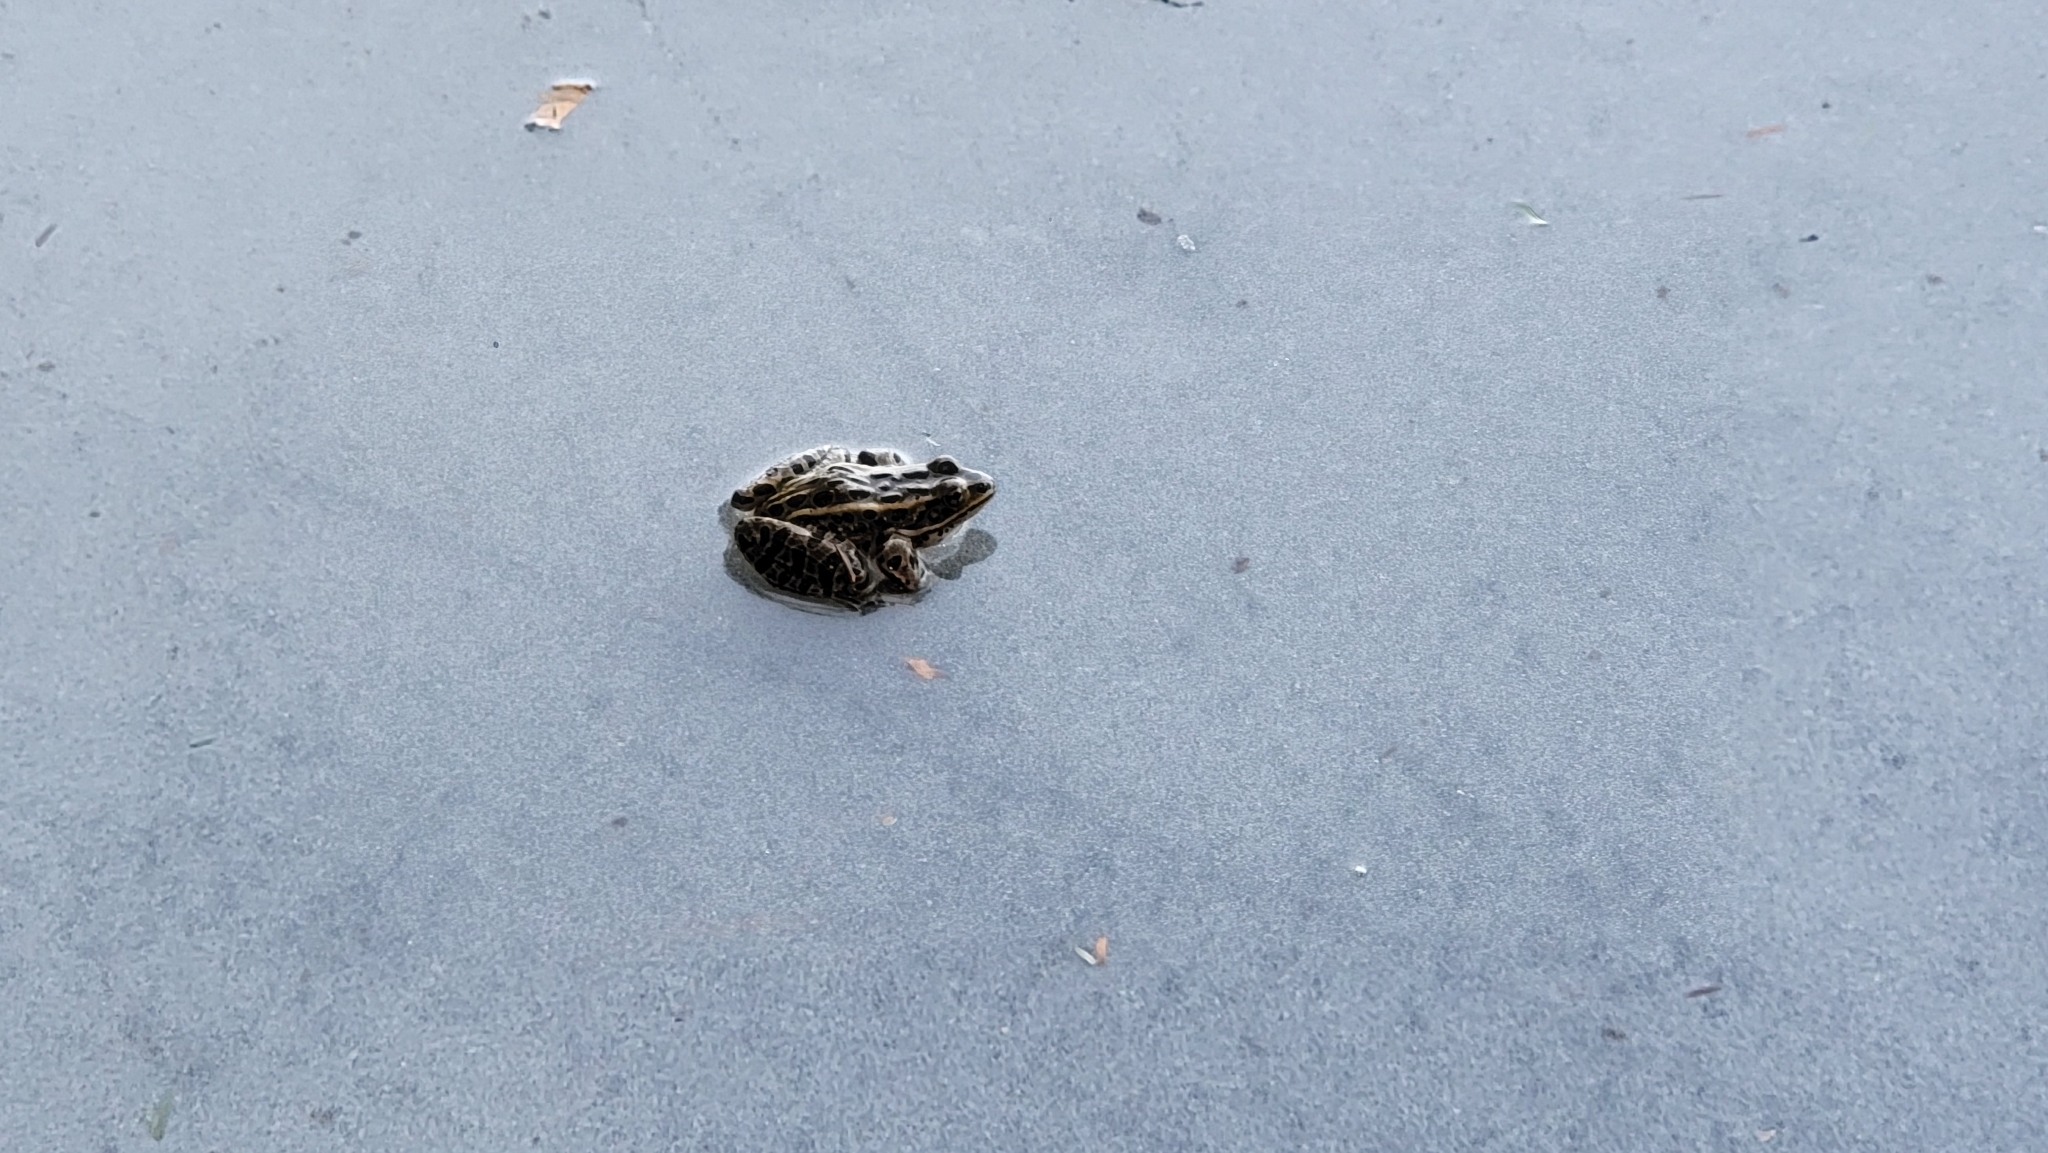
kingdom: Animalia
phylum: Chordata
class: Amphibia
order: Anura
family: Ranidae
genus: Lithobates
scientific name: Lithobates pipiens
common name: Northern leopard frog
